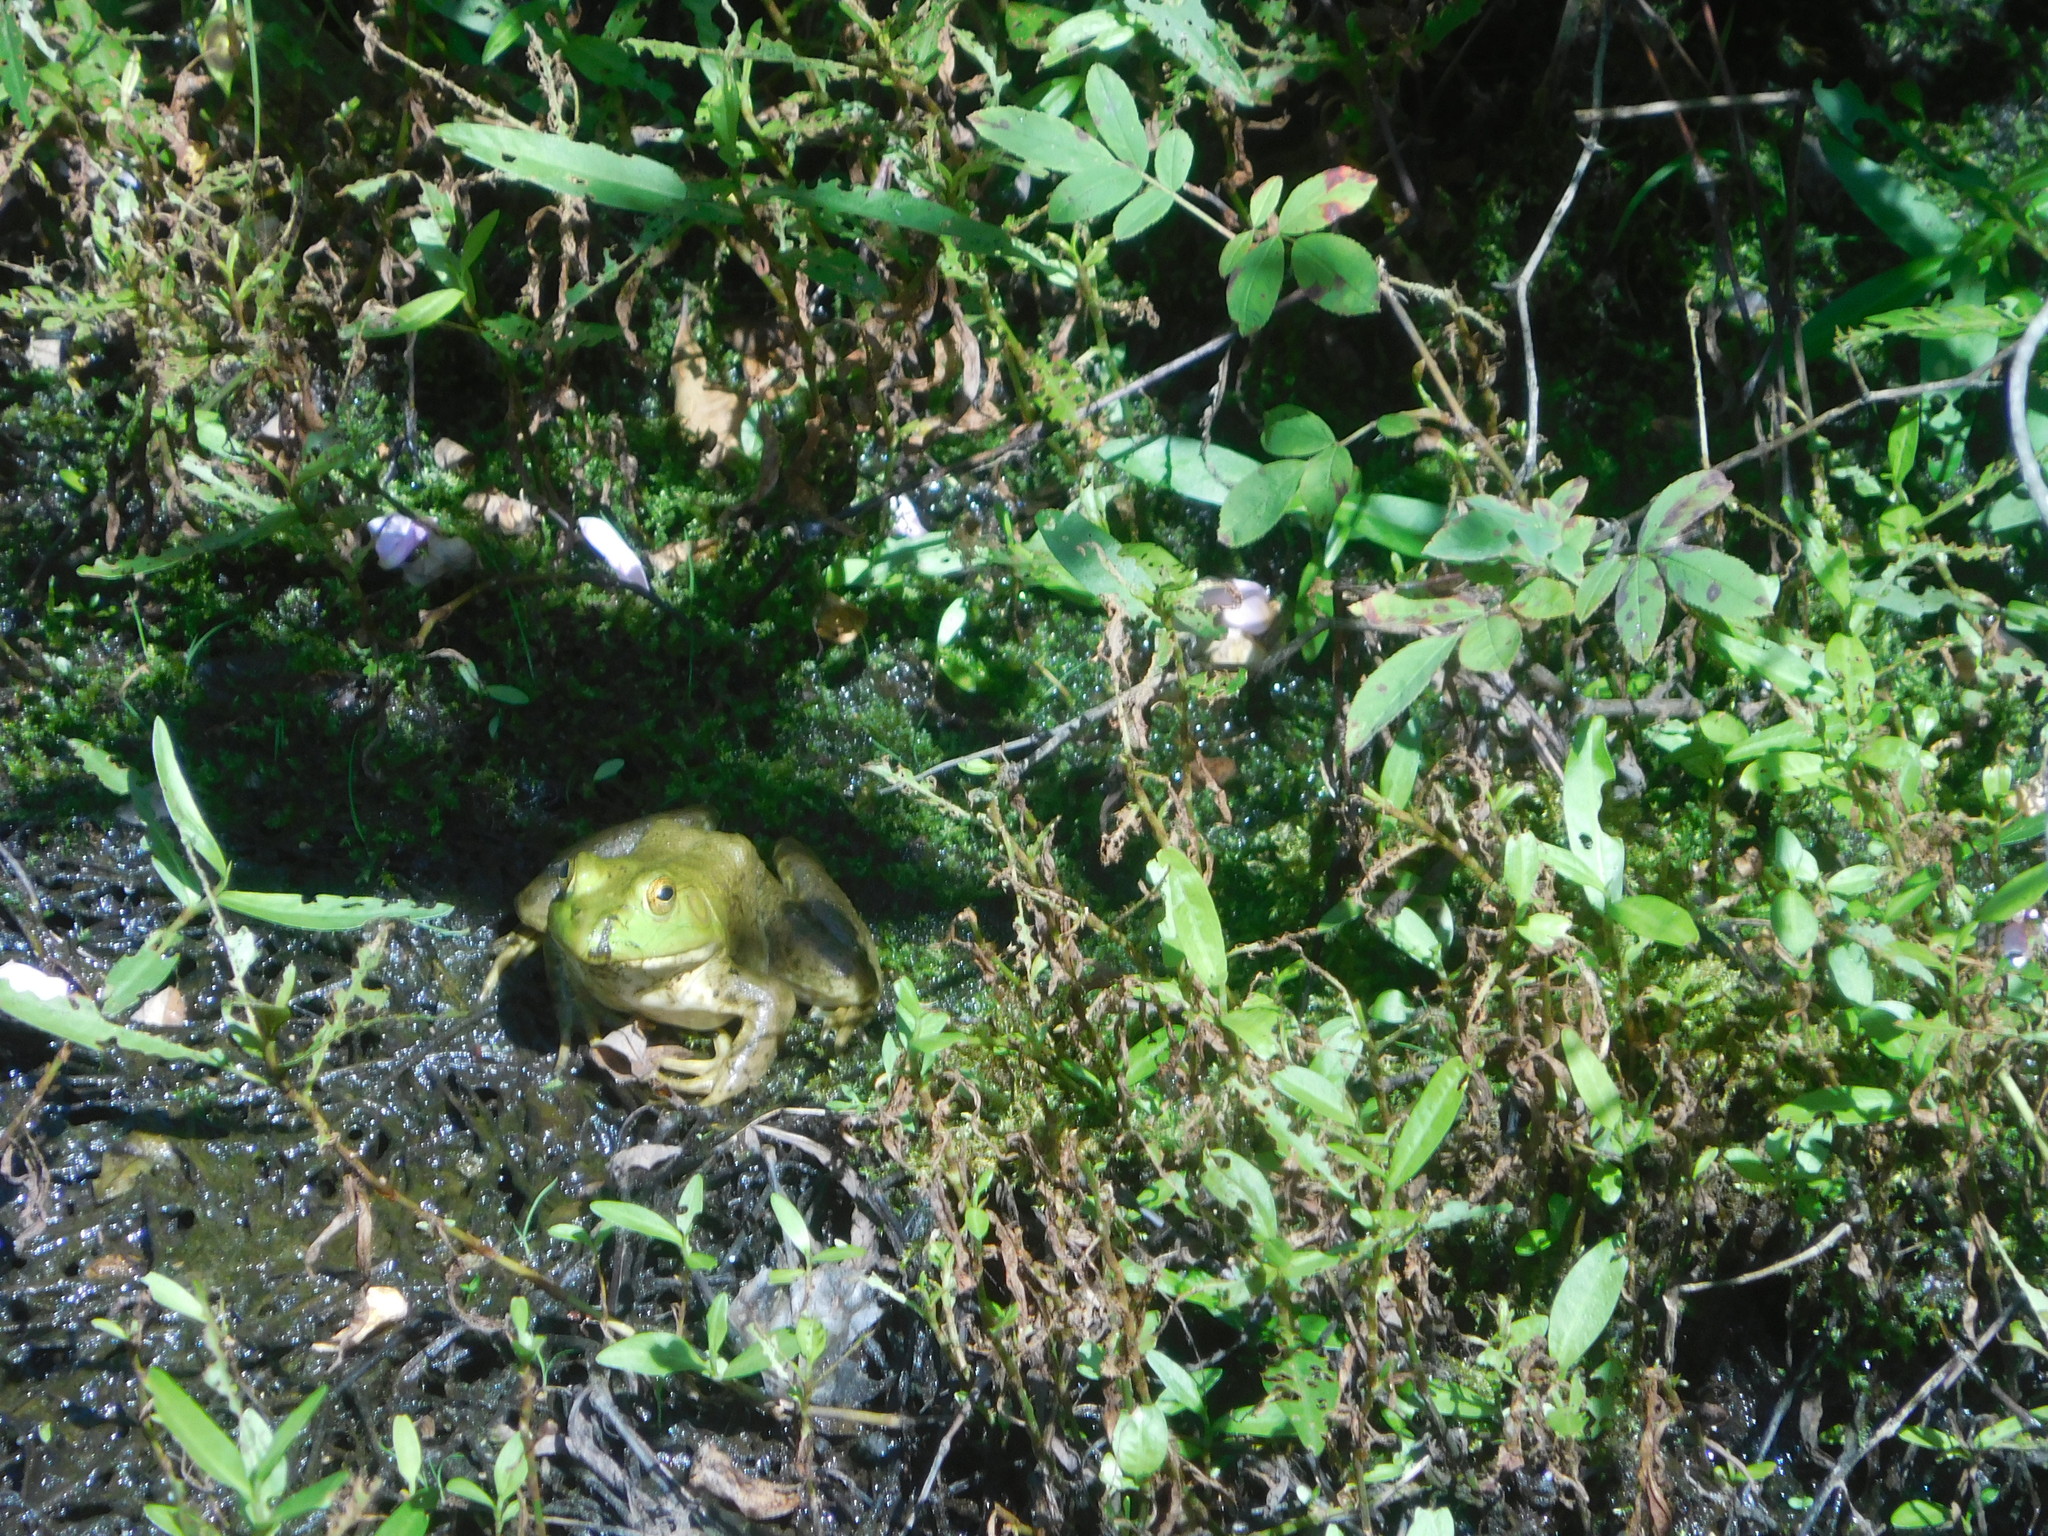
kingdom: Animalia
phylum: Chordata
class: Amphibia
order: Anura
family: Ranidae
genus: Lithobates
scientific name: Lithobates catesbeianus
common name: American bullfrog
